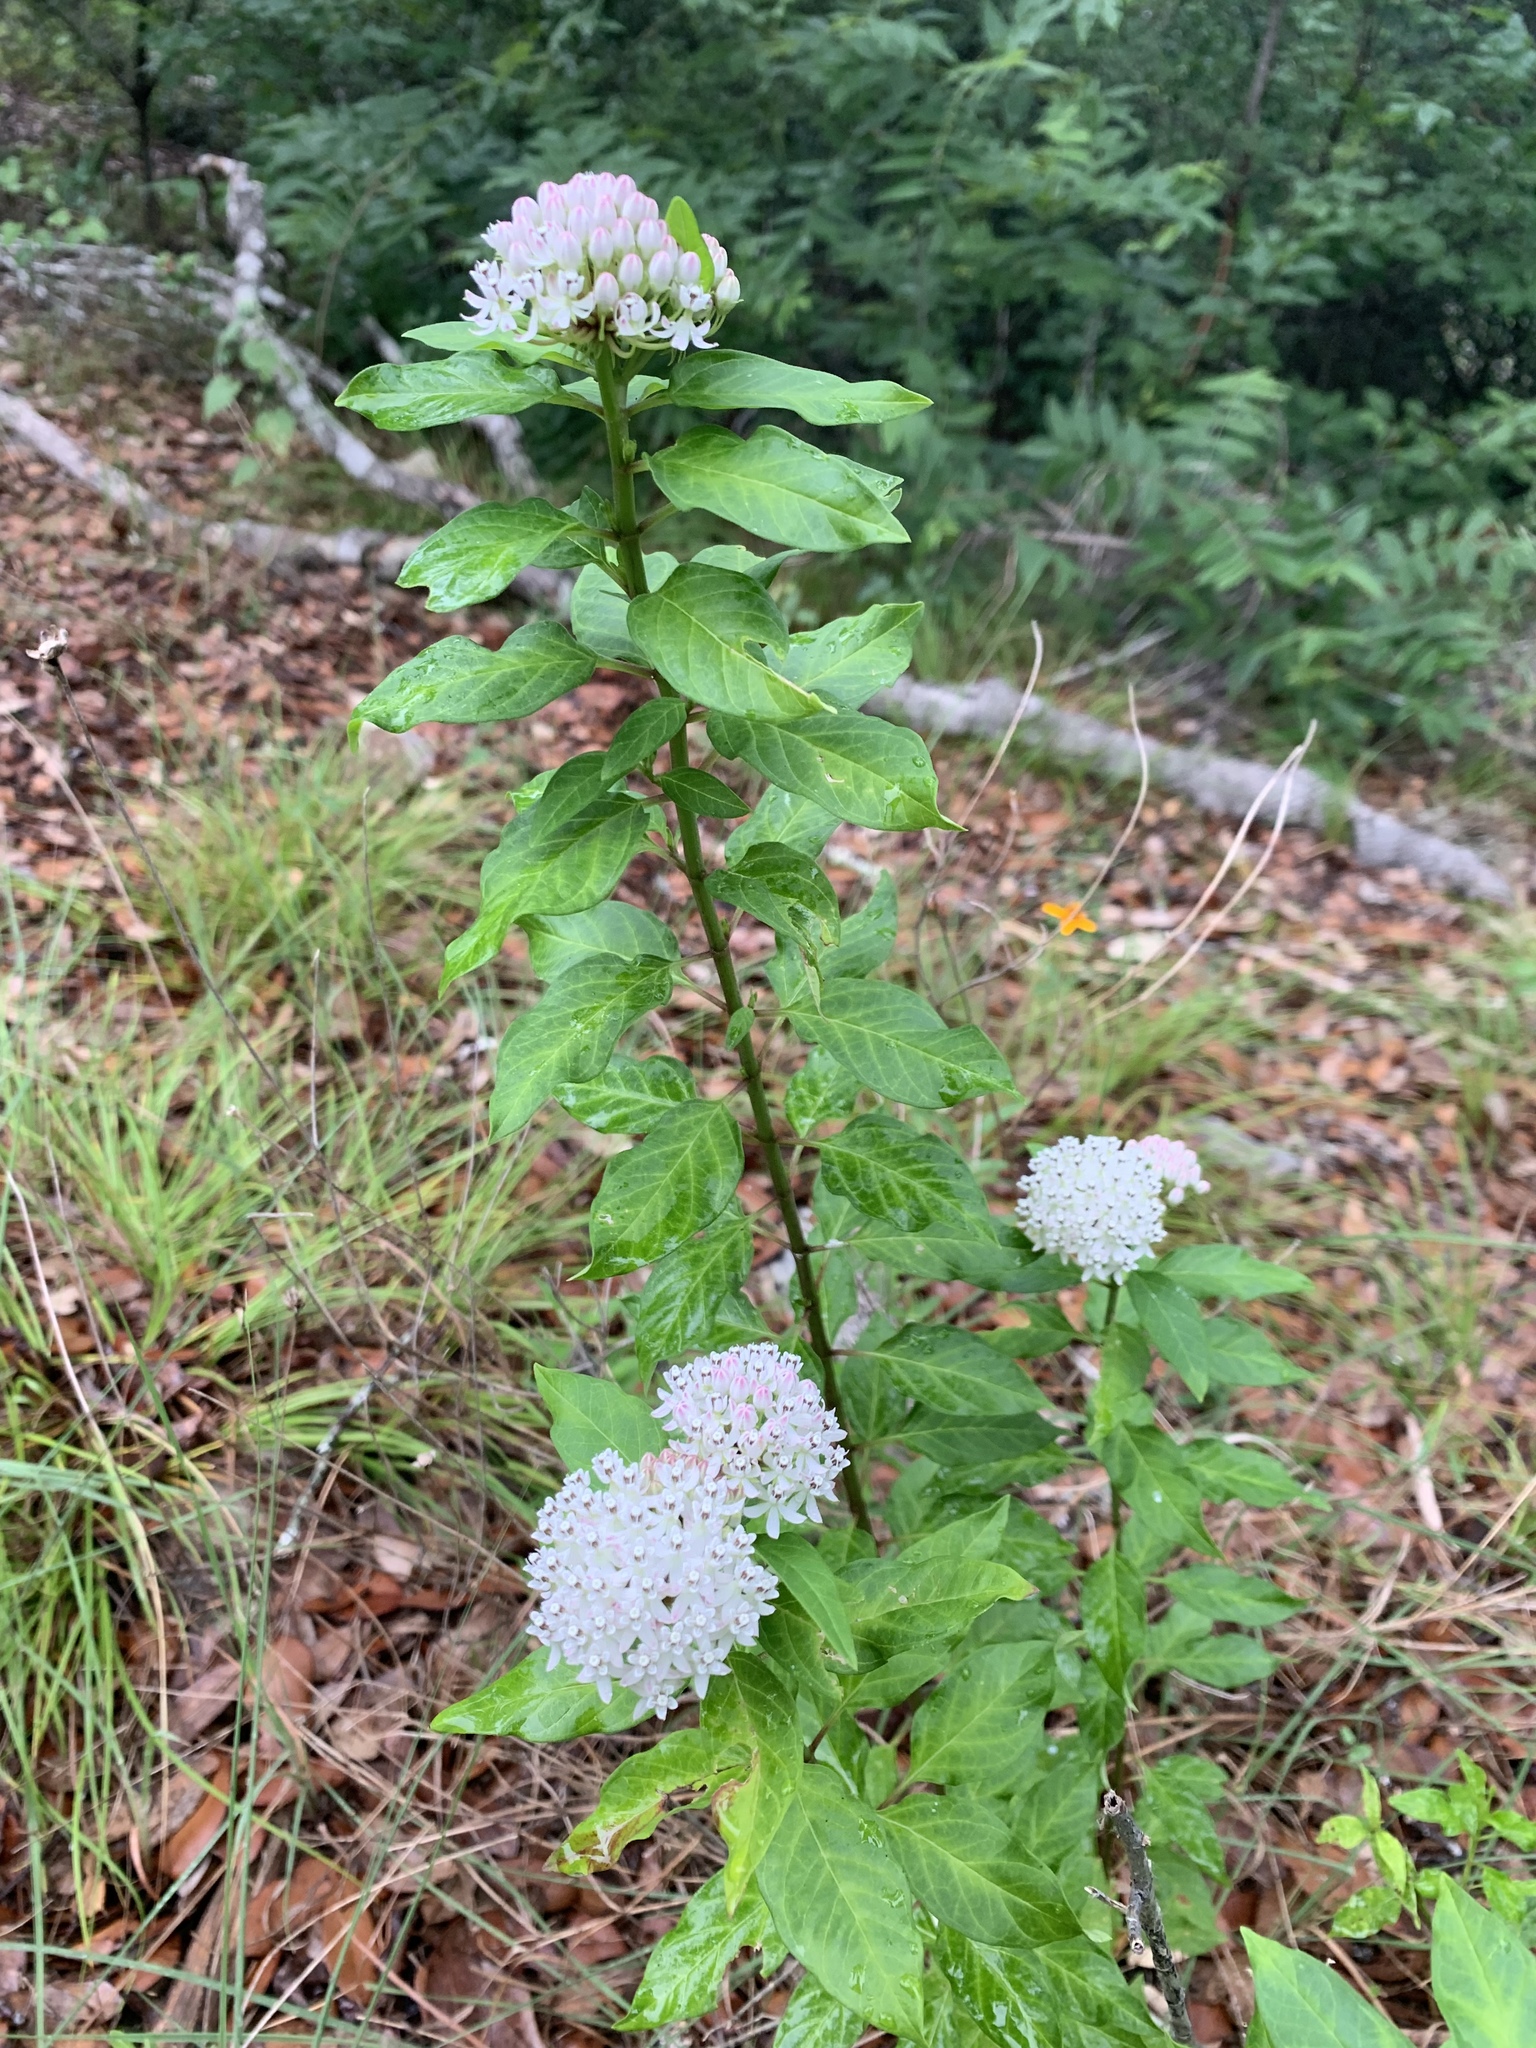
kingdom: Plantae
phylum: Tracheophyta
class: Magnoliopsida
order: Gentianales
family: Apocynaceae
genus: Asclepias
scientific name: Asclepias texana
